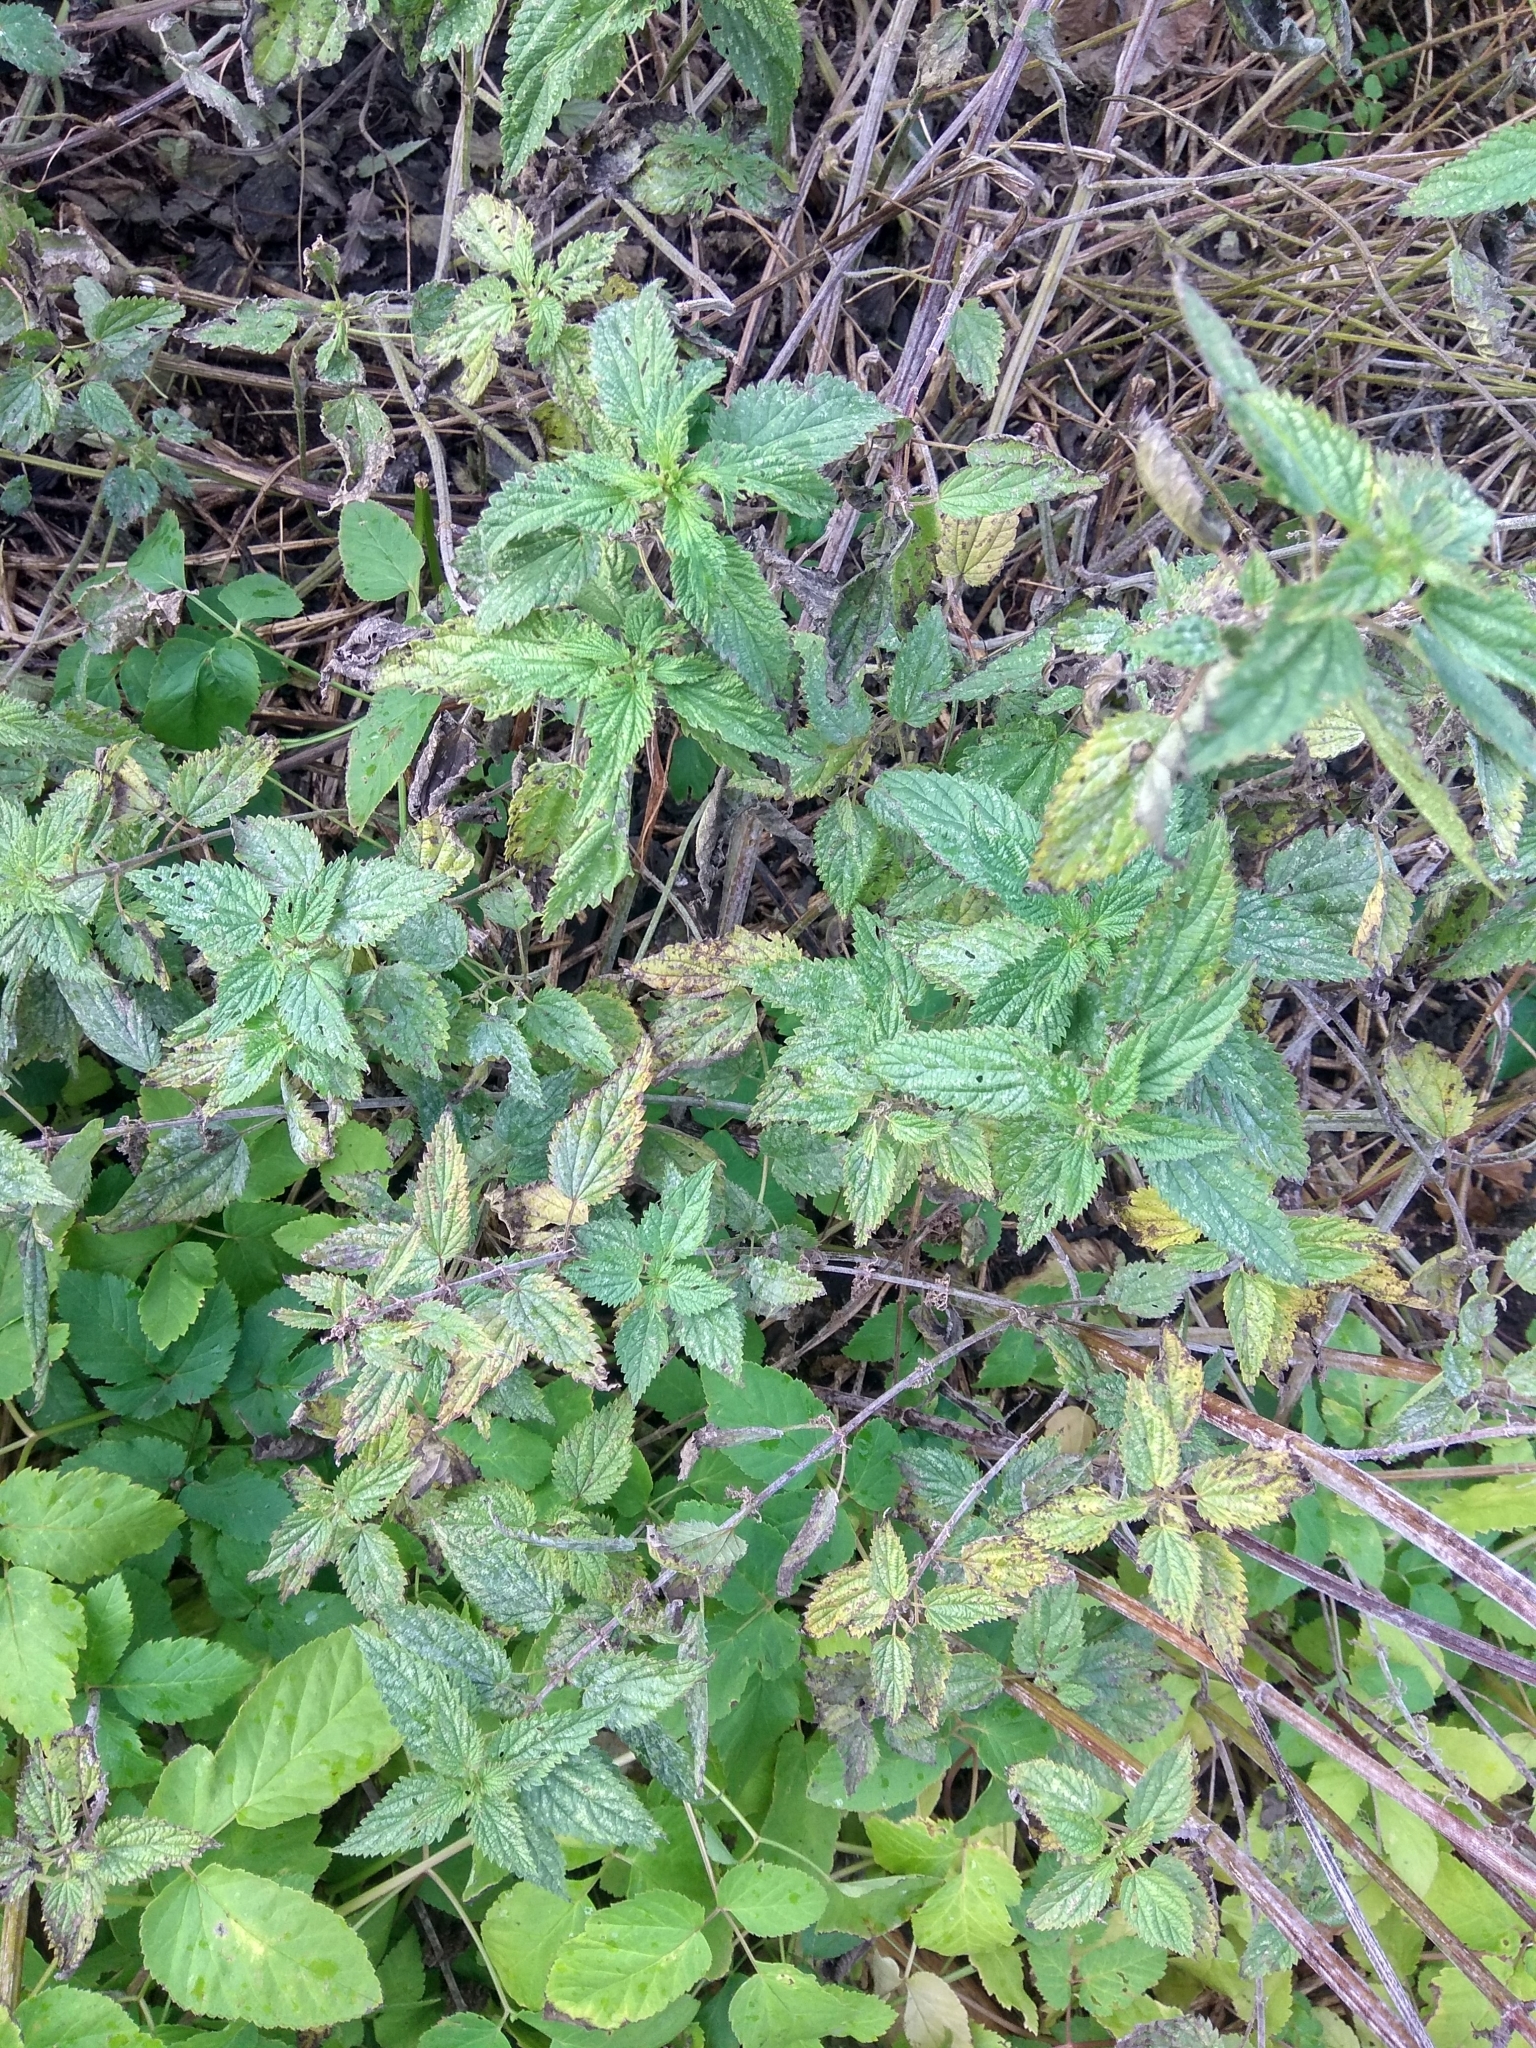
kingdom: Plantae
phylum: Tracheophyta
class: Magnoliopsida
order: Rosales
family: Urticaceae
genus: Urtica
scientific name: Urtica dioica
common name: Common nettle
